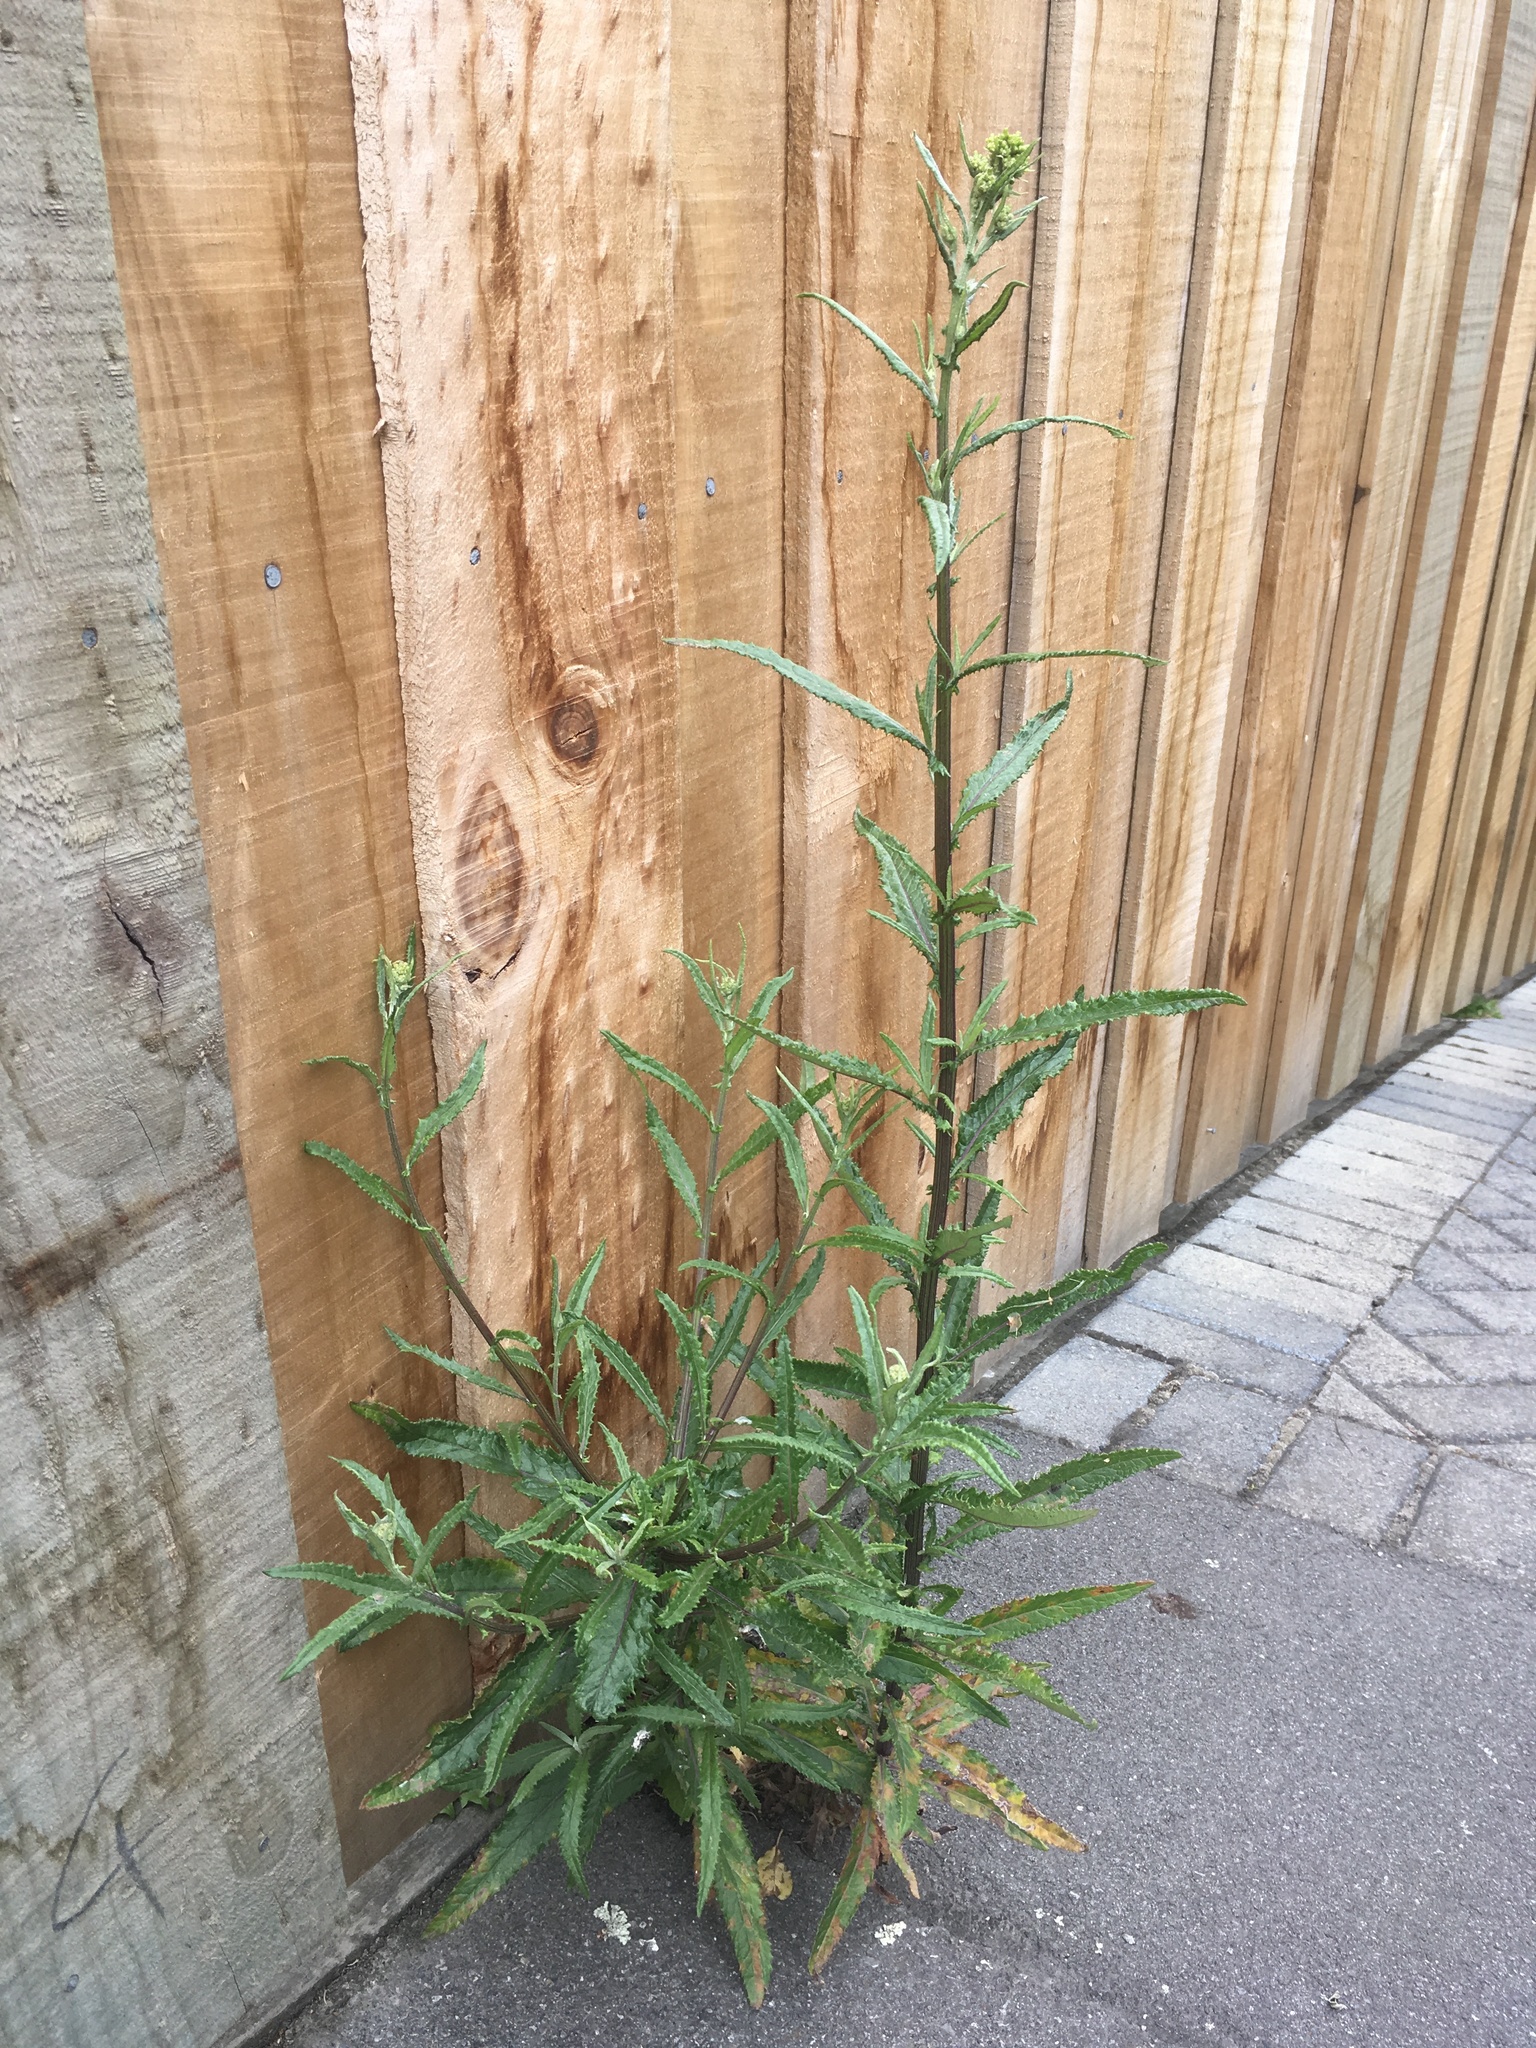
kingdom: Plantae
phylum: Tracheophyta
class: Magnoliopsida
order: Asterales
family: Asteraceae
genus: Senecio
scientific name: Senecio minimus
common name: Toothed fireweed
